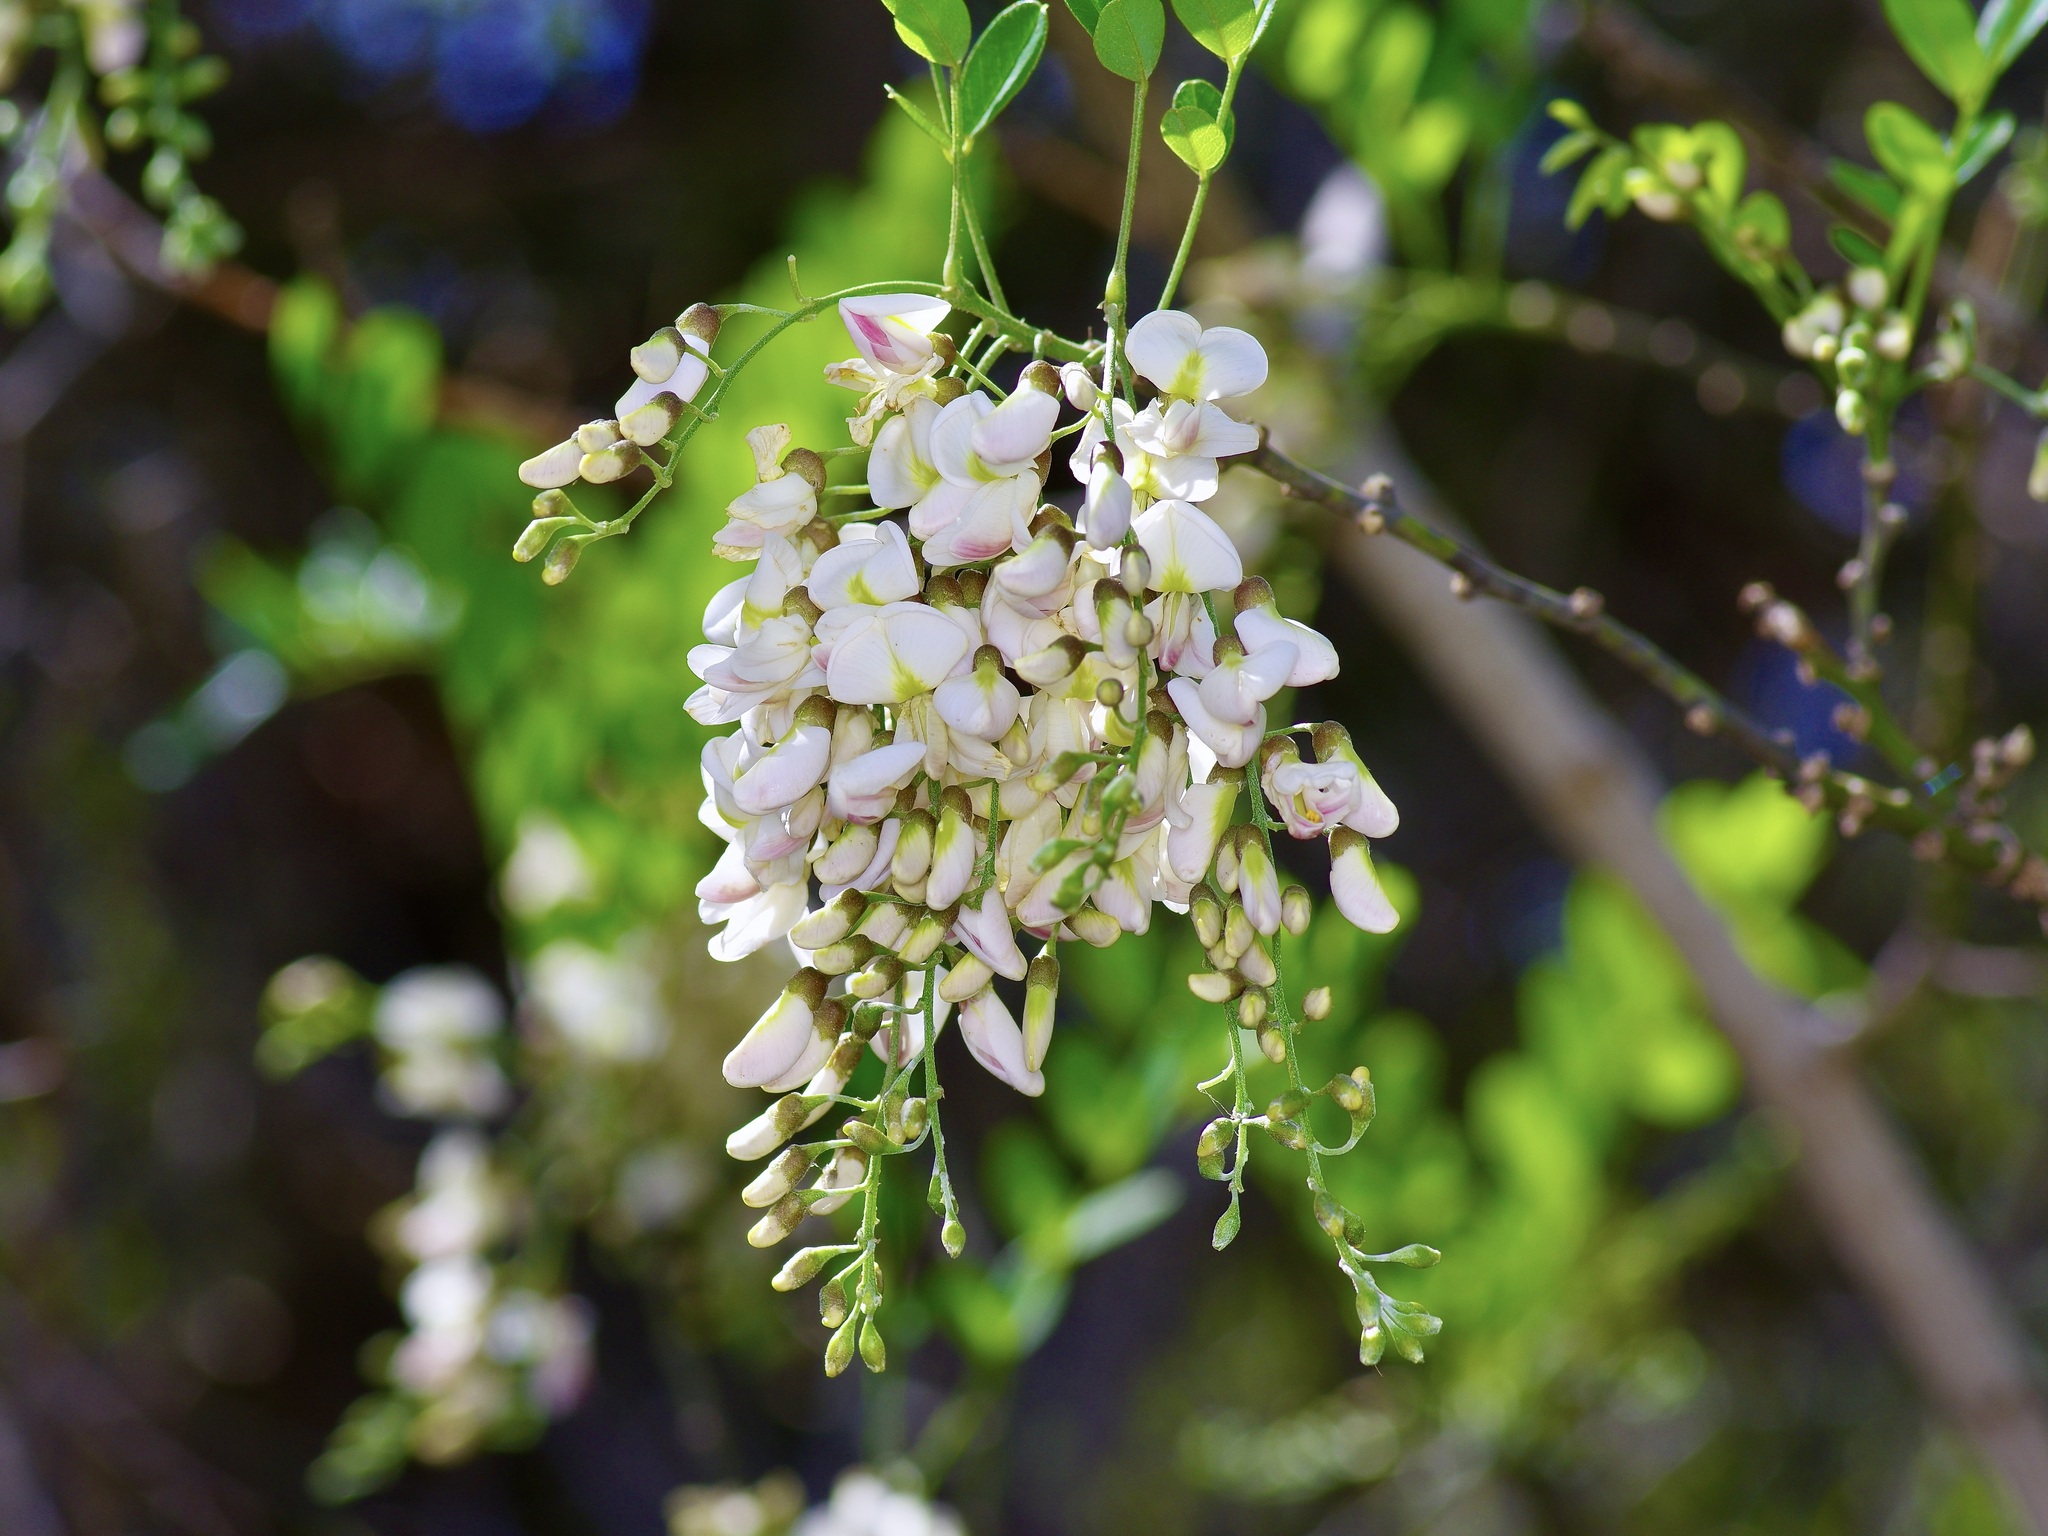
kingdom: Plantae
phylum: Tracheophyta
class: Magnoliopsida
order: Fabales
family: Fabaceae
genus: Styphnolobium
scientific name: Styphnolobium affine
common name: Texas sophora
